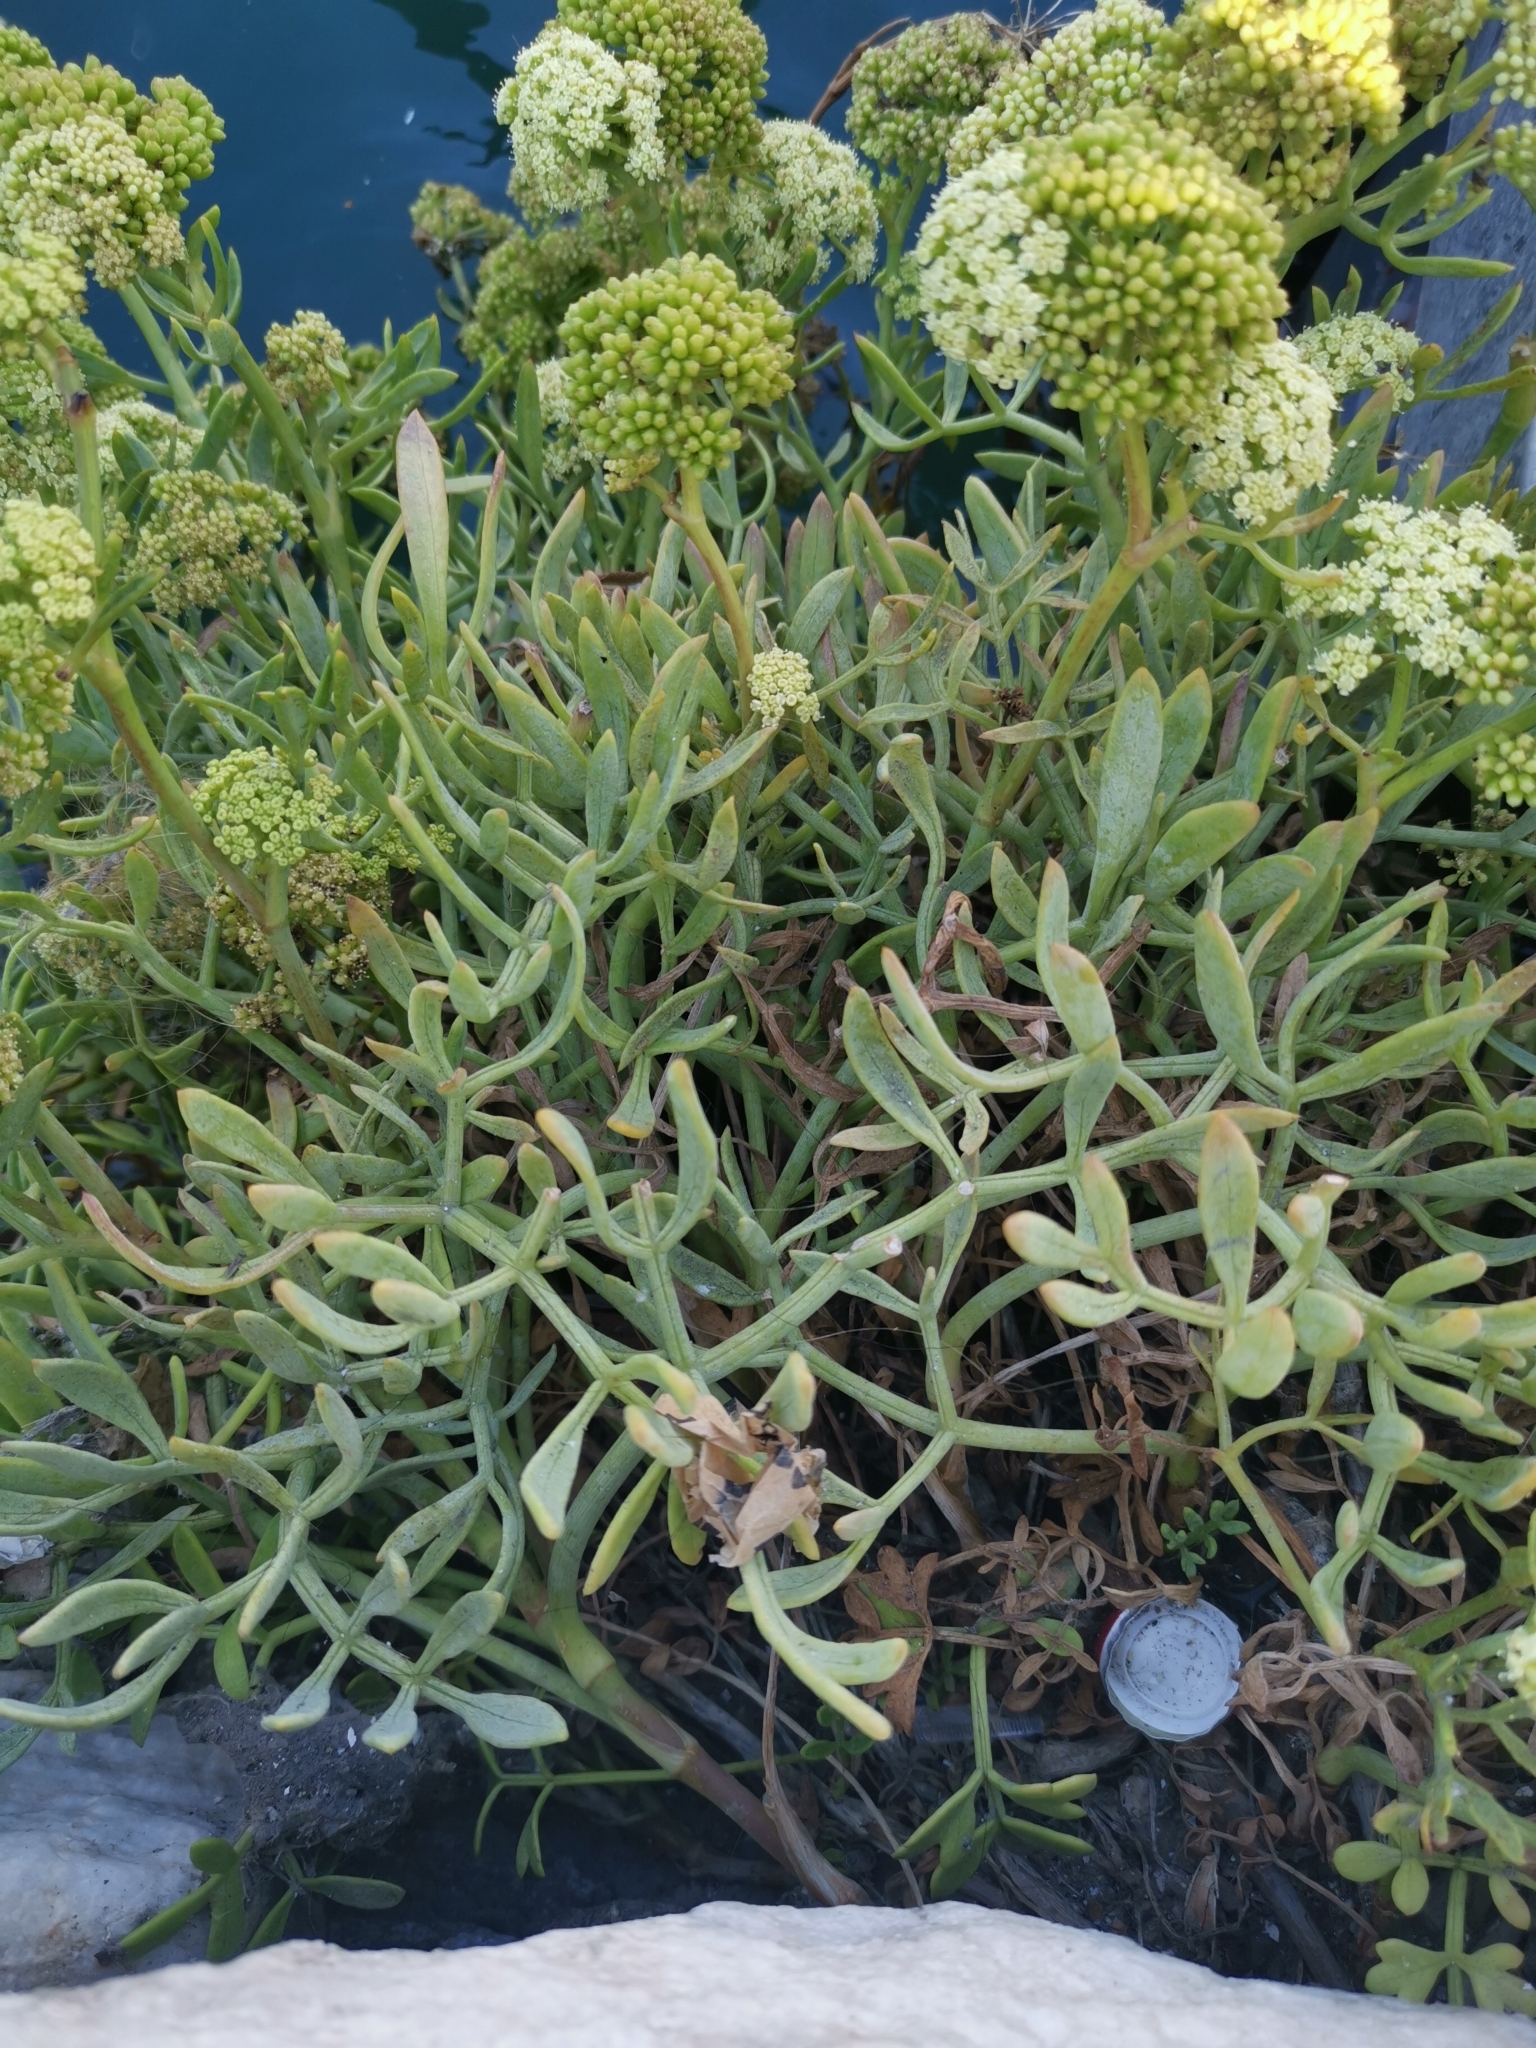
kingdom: Plantae
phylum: Tracheophyta
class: Magnoliopsida
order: Apiales
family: Apiaceae
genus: Crithmum
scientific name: Crithmum maritimum
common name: Rock samphire
